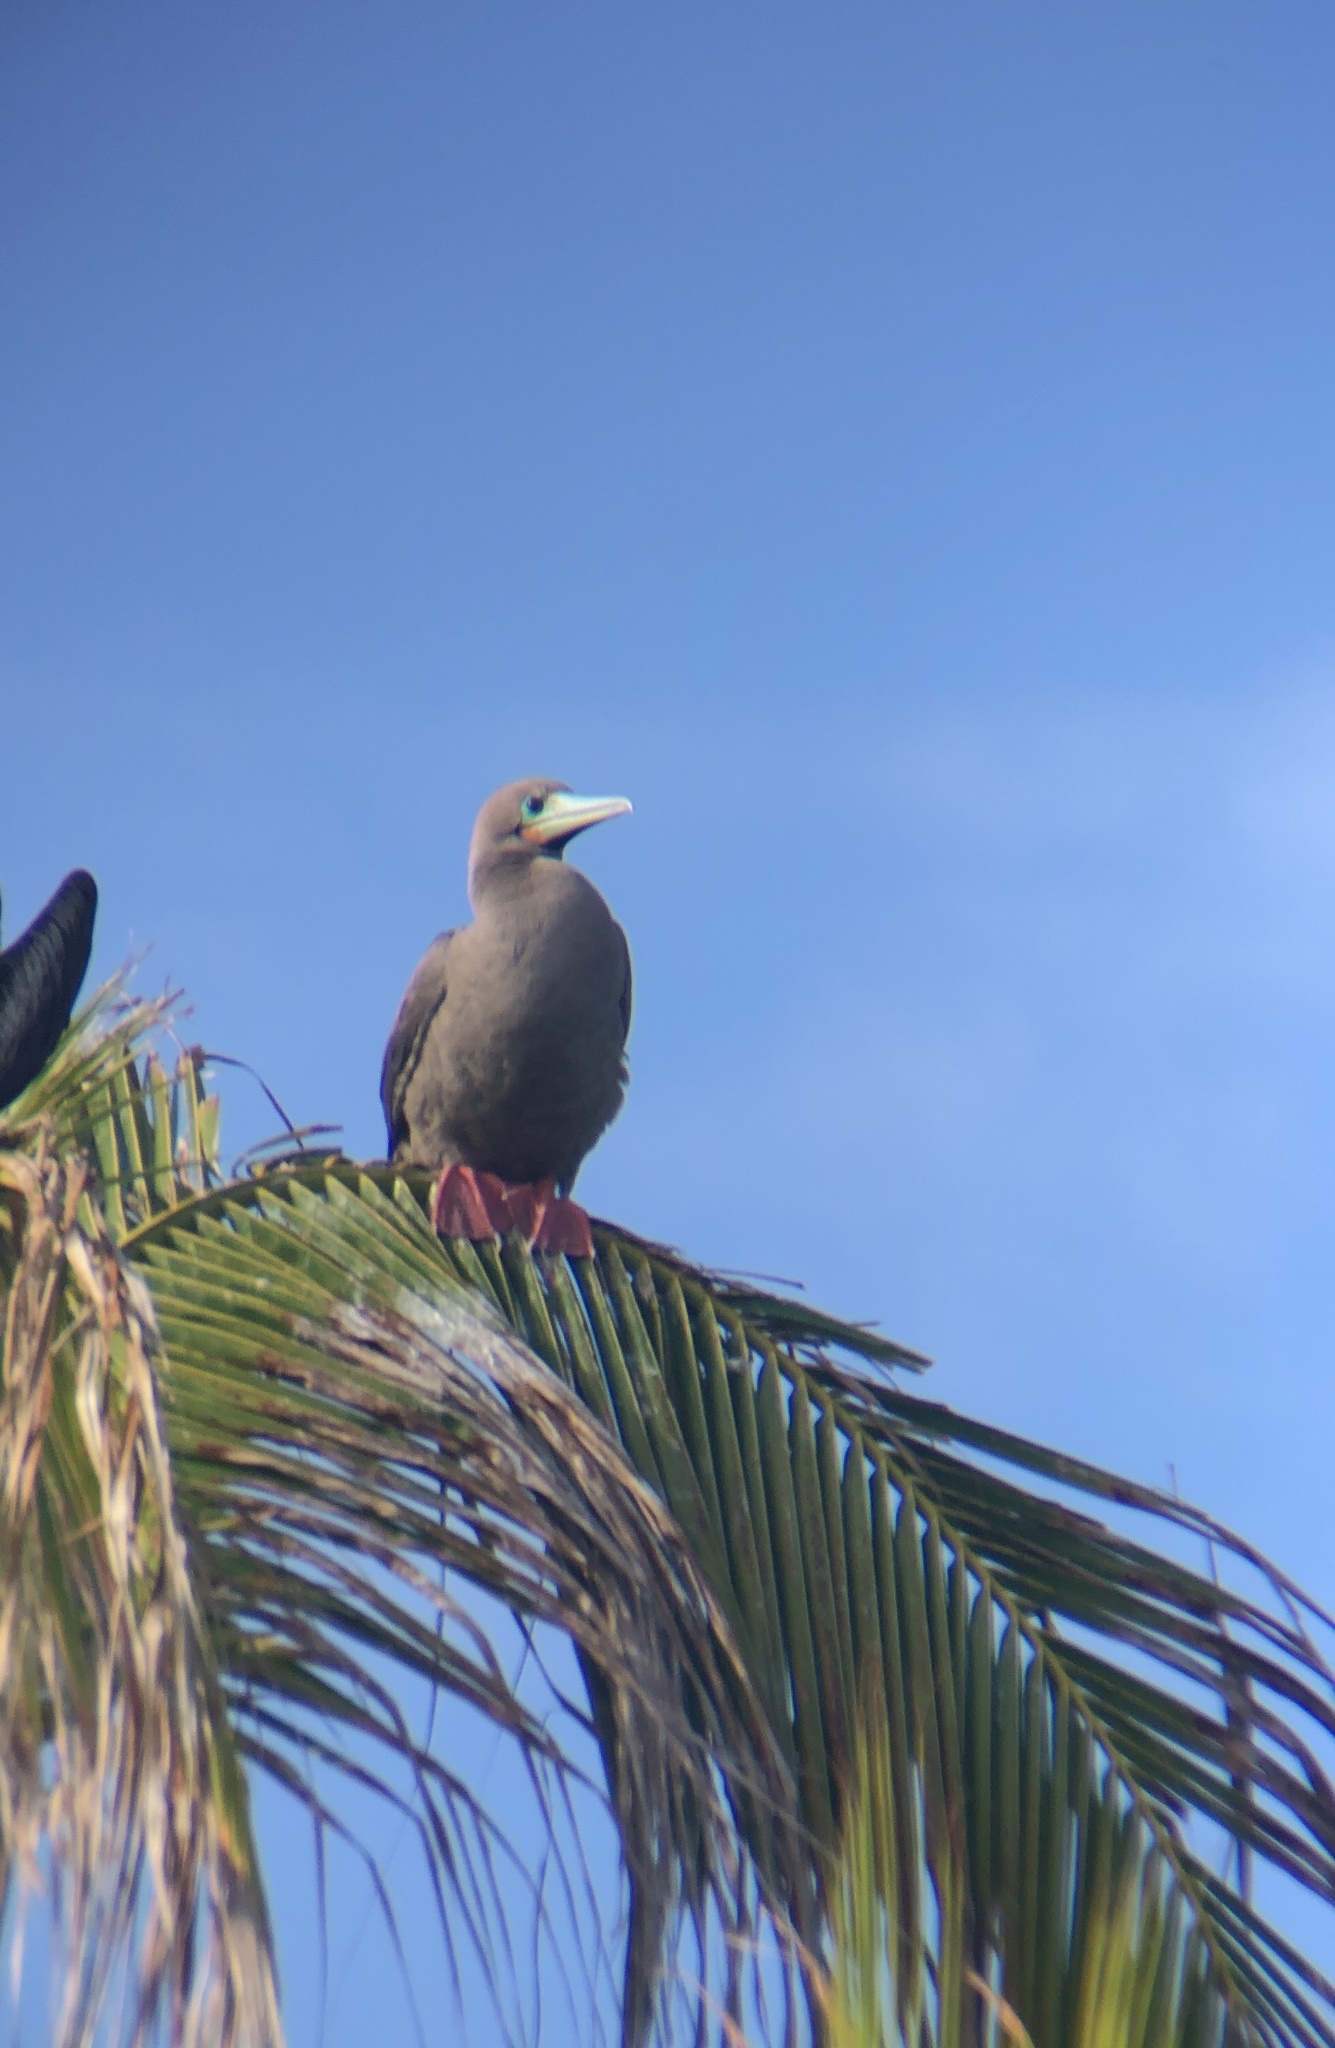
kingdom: Animalia
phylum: Chordata
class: Aves
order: Suliformes
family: Sulidae
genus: Sula
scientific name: Sula sula
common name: Red-footed booby
